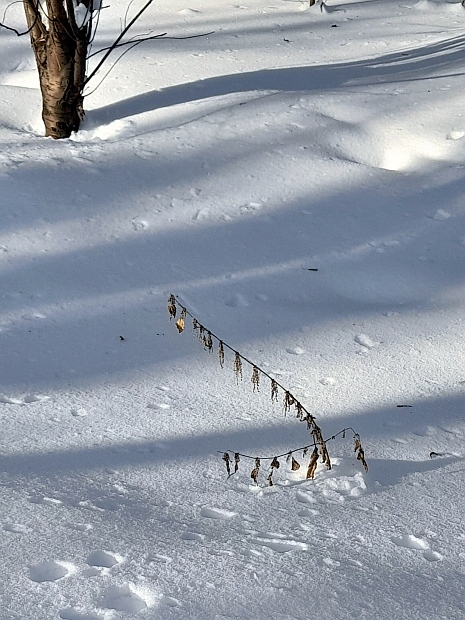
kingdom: Plantae
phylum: Tracheophyta
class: Magnoliopsida
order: Rosales
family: Urticaceae
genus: Urtica
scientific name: Urtica dioica
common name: Common nettle
